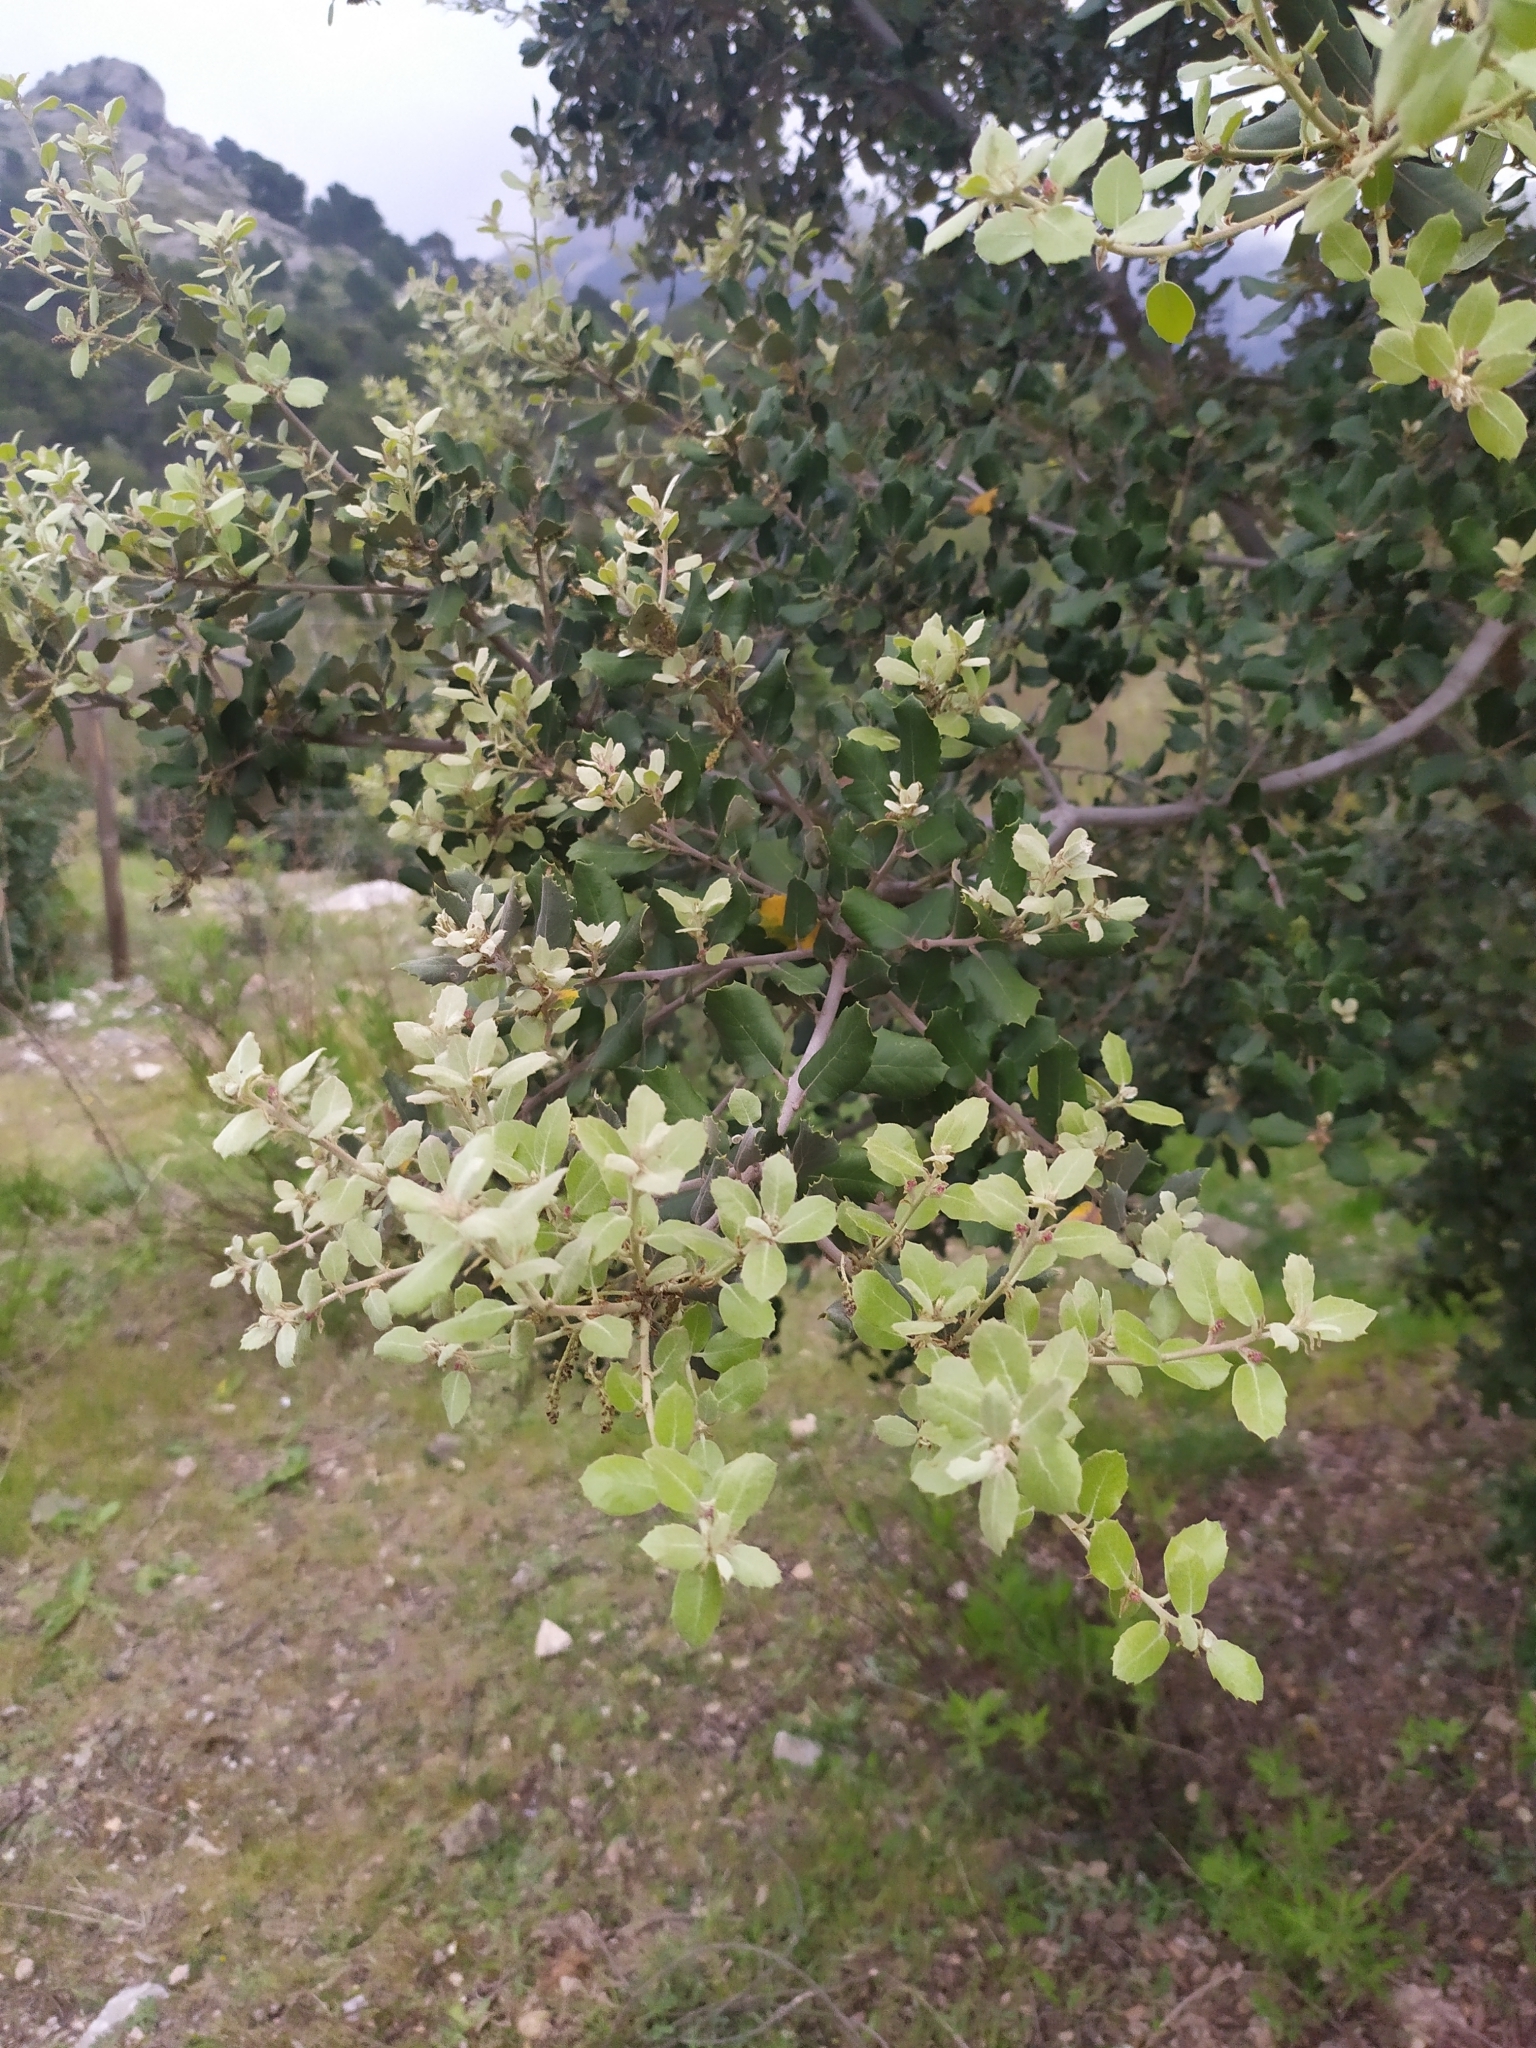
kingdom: Plantae
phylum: Tracheophyta
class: Magnoliopsida
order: Fagales
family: Fagaceae
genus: Quercus
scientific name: Quercus ilex
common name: Evergreen oak
